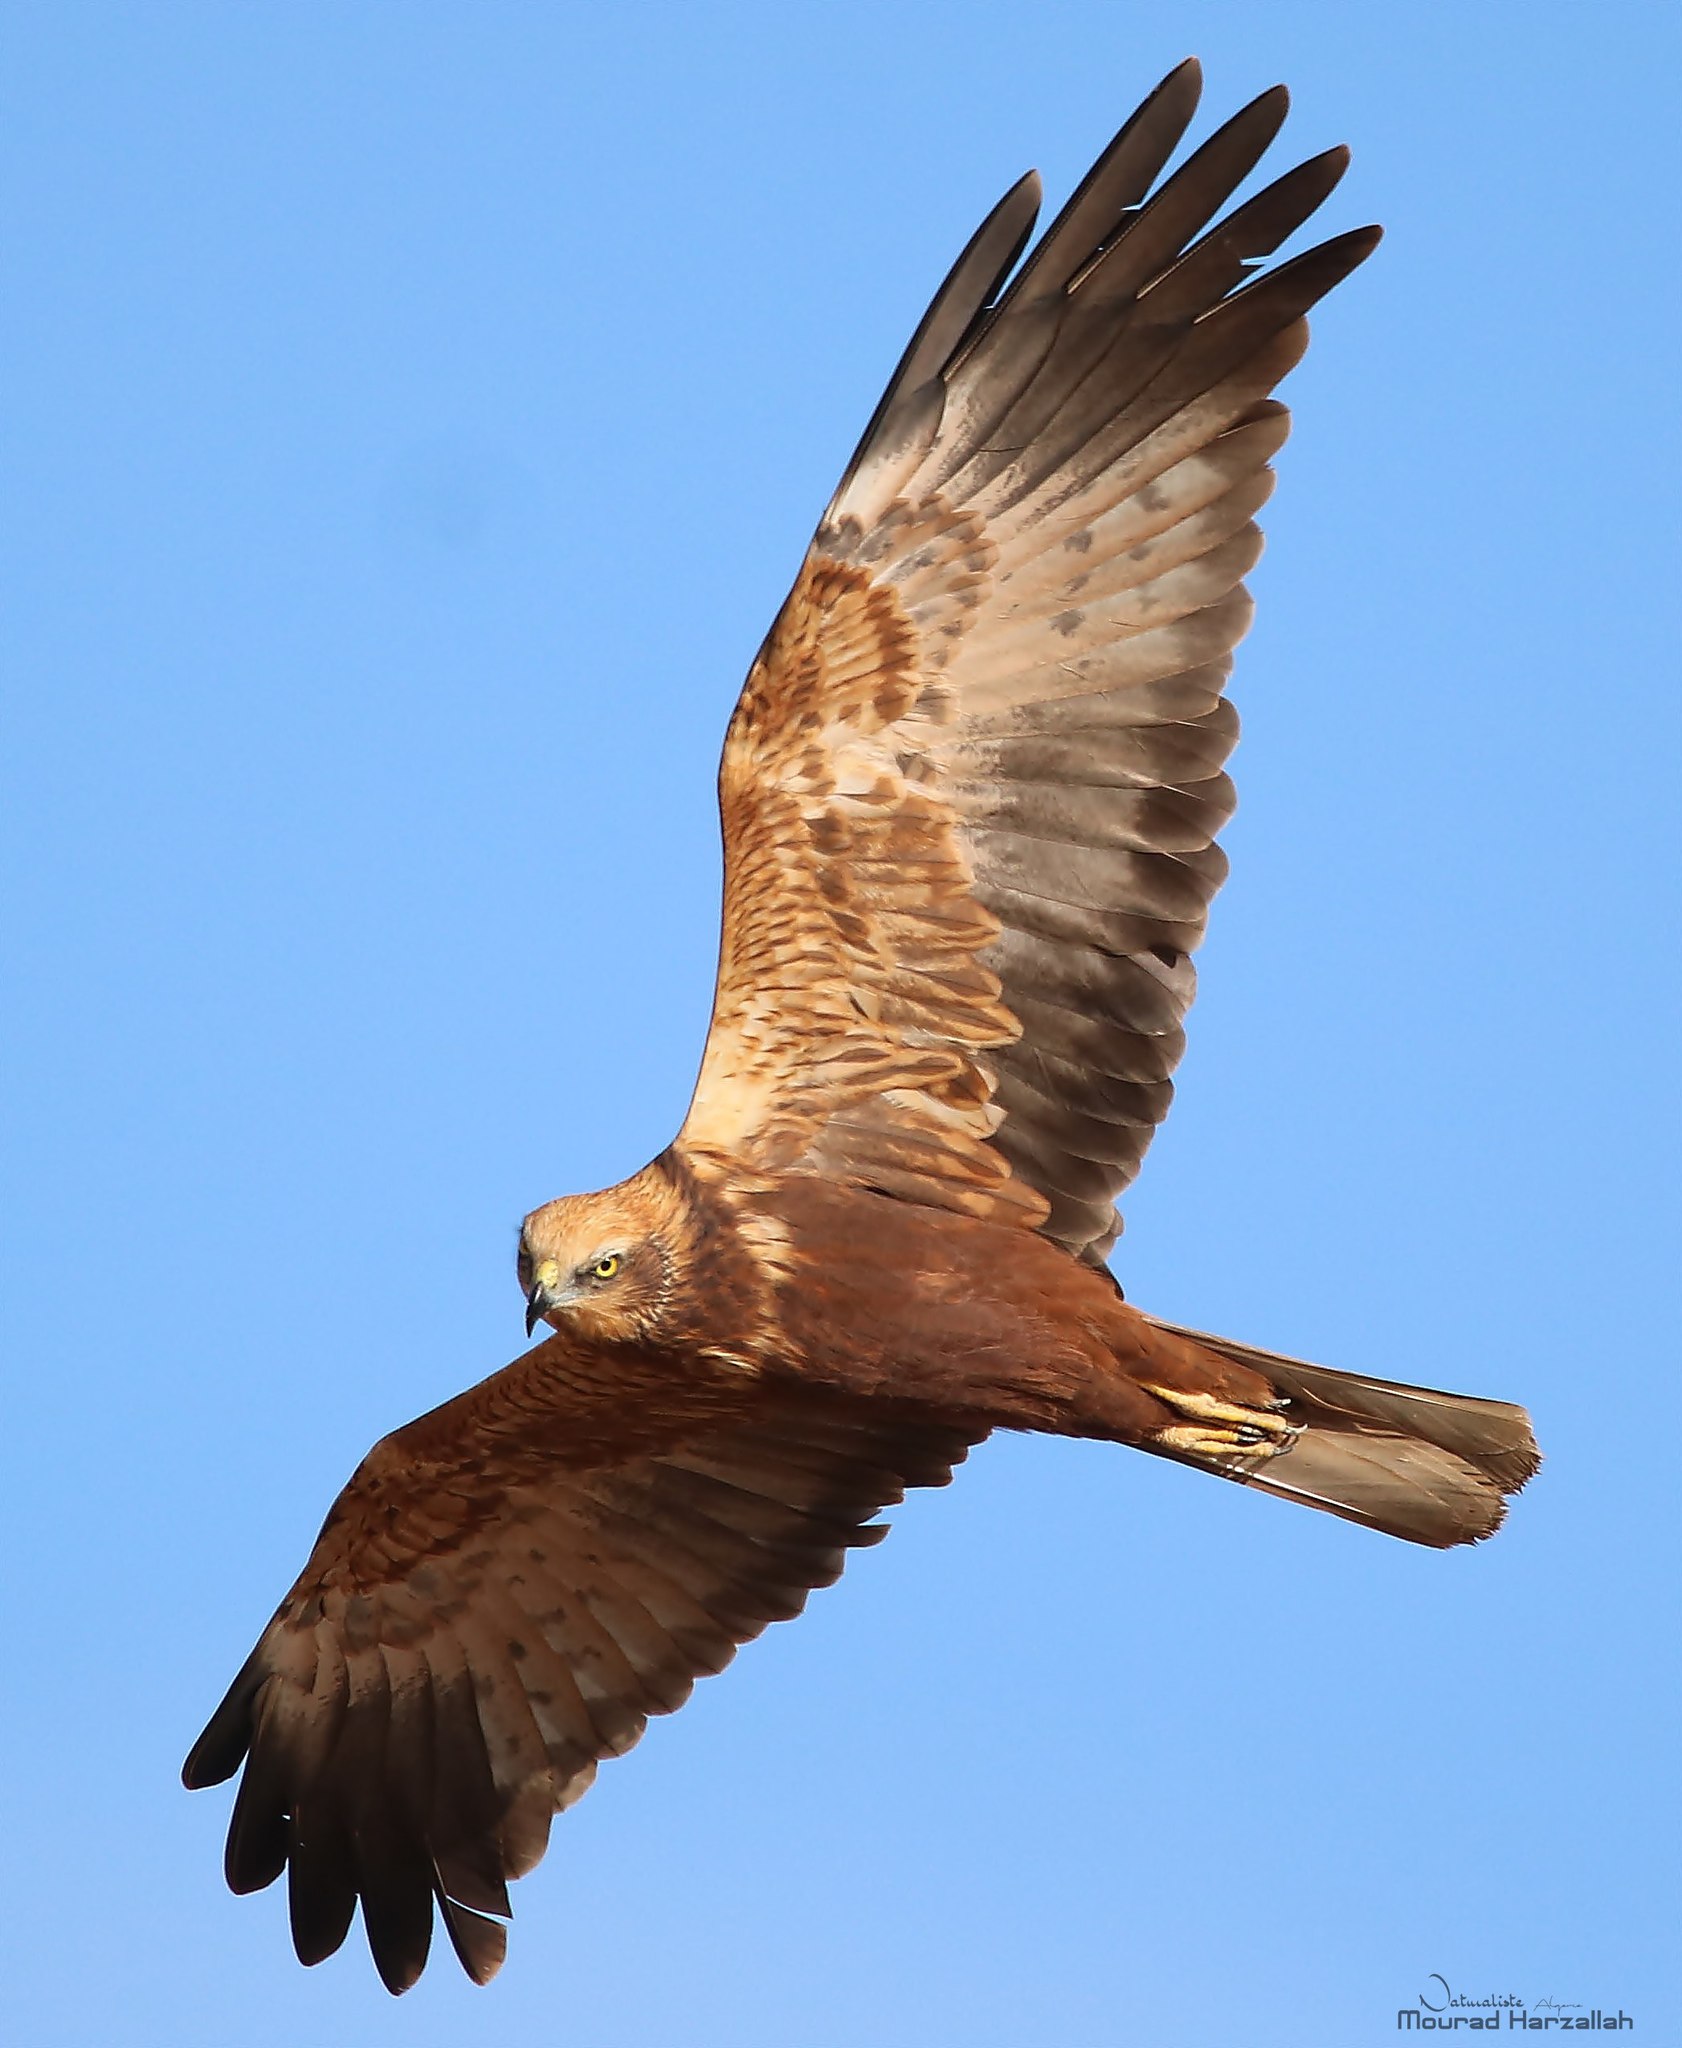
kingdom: Animalia
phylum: Chordata
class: Aves
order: Accipitriformes
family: Accipitridae
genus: Circus
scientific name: Circus aeruginosus
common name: Western marsh harrier
